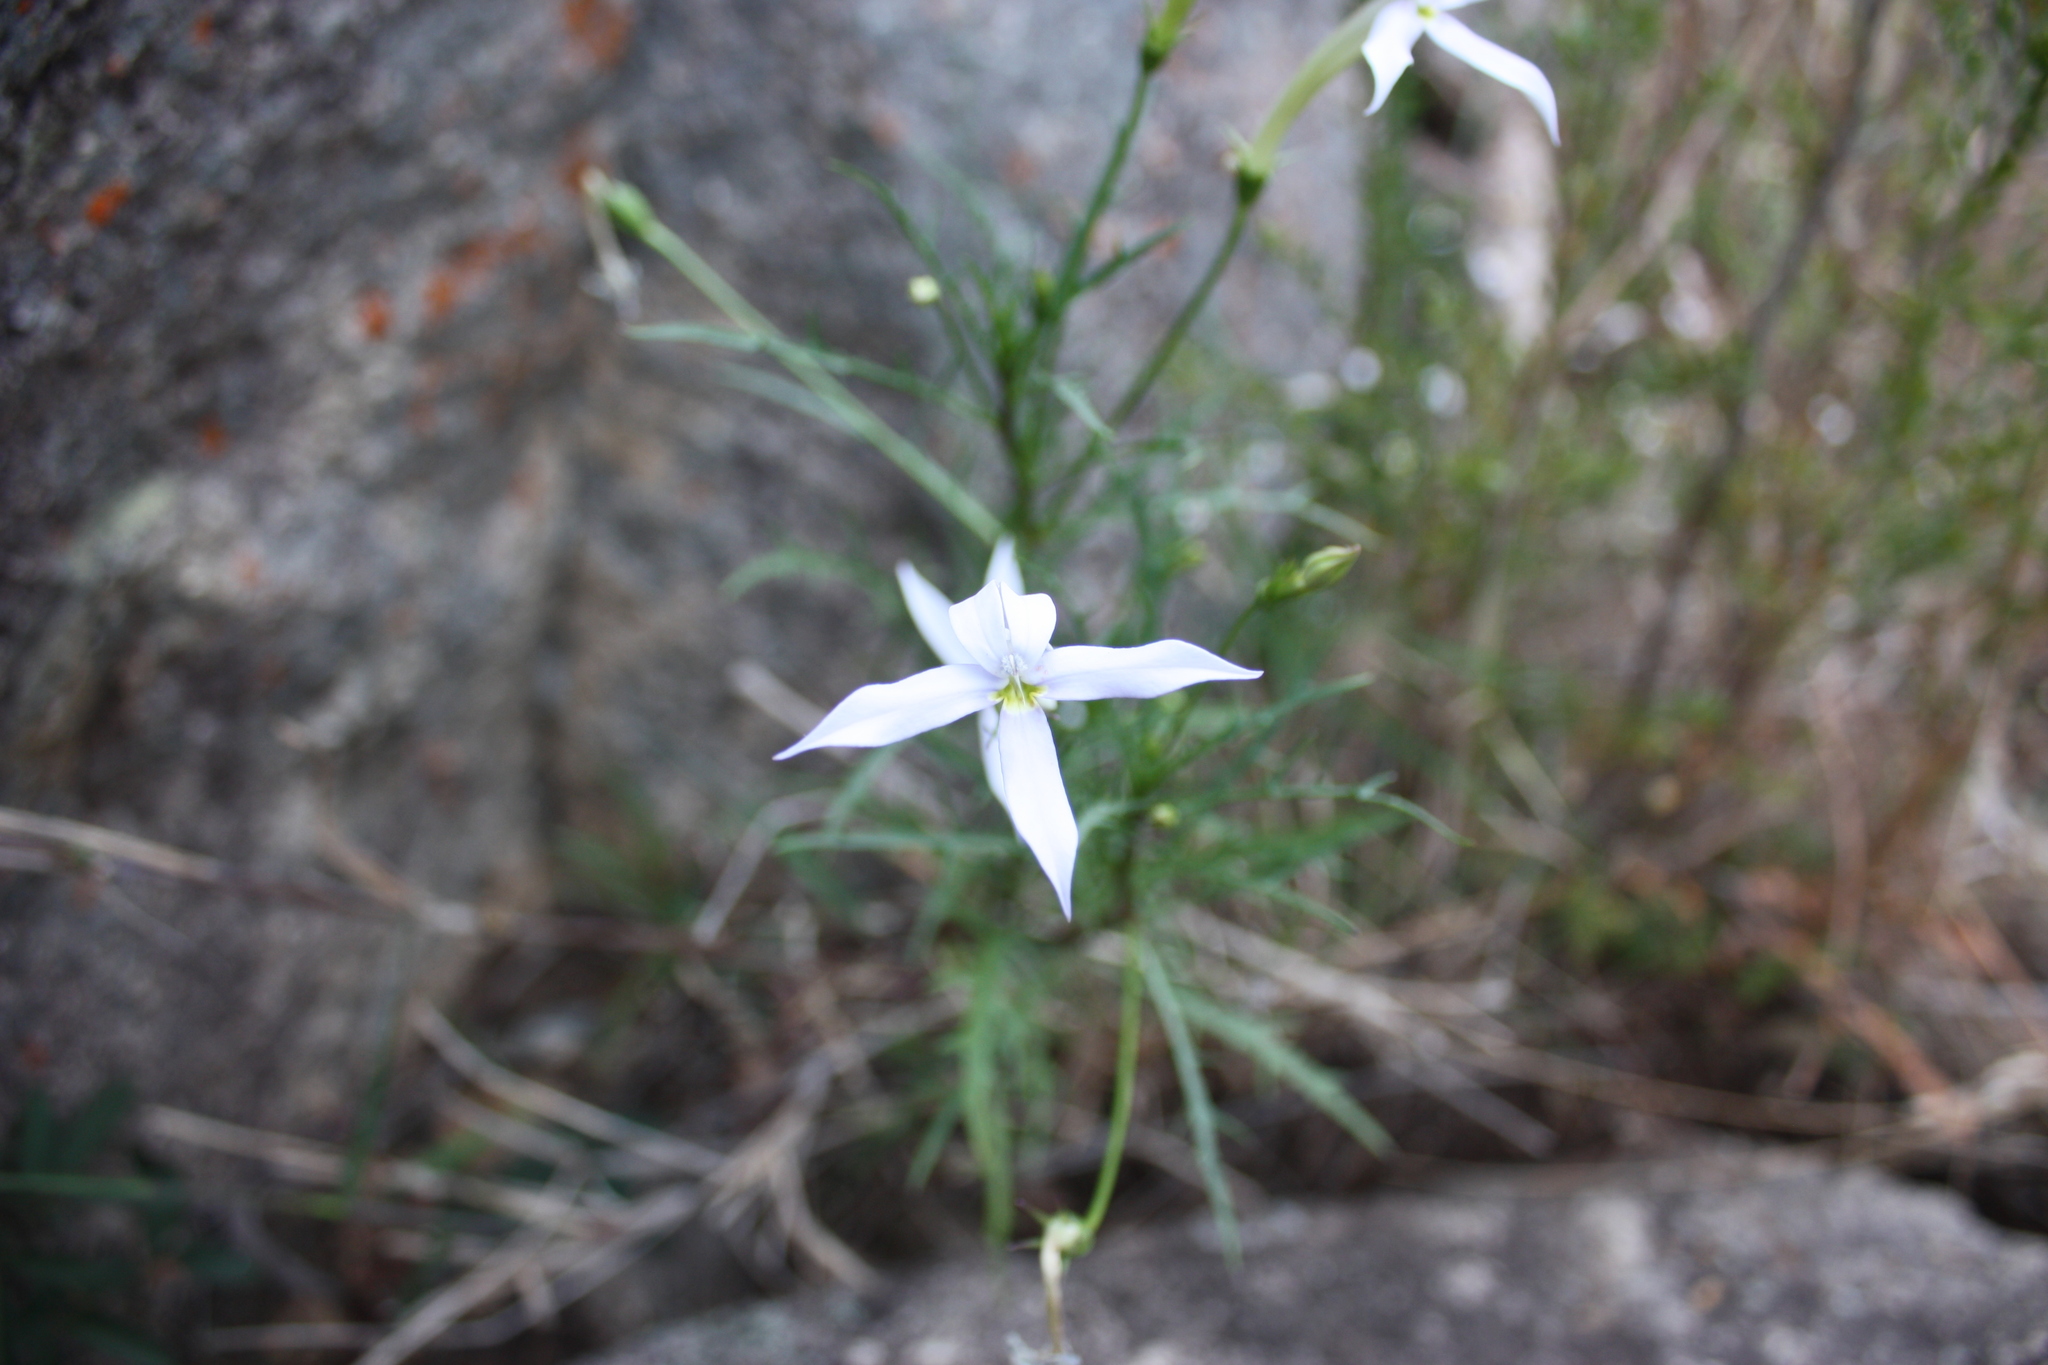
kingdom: Plantae
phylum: Tracheophyta
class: Magnoliopsida
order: Asterales
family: Campanulaceae
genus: Lithotoma
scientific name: Lithotoma anethifolia
